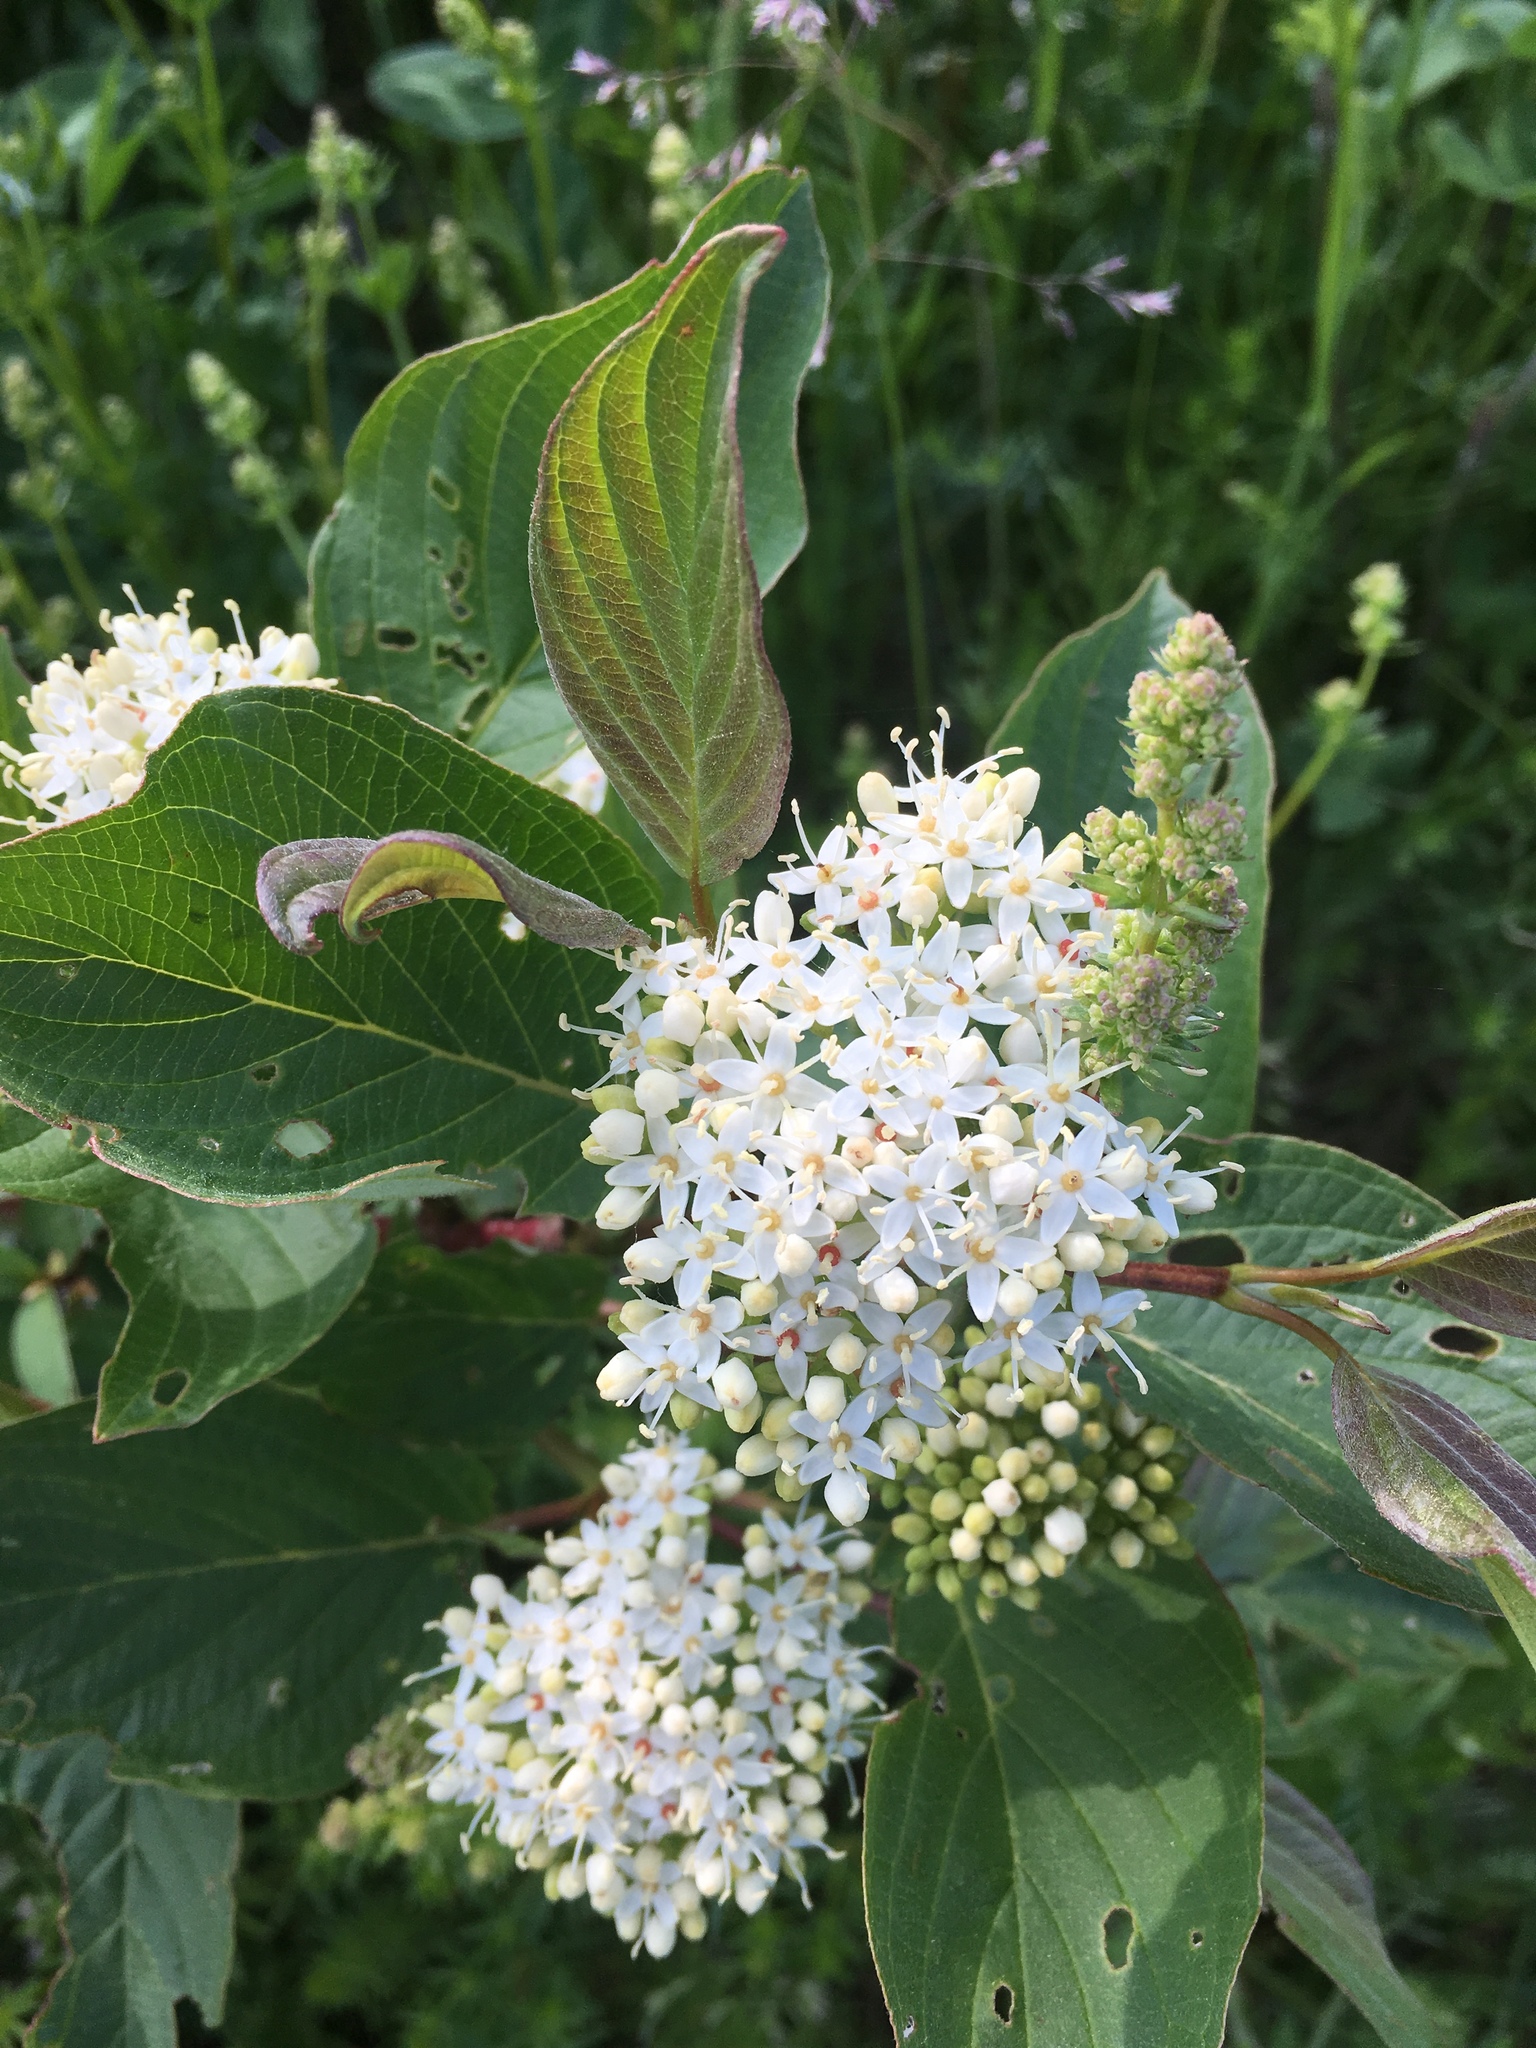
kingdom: Plantae
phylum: Tracheophyta
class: Magnoliopsida
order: Cornales
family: Cornaceae
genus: Cornus
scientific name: Cornus sericea
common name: Red-osier dogwood
